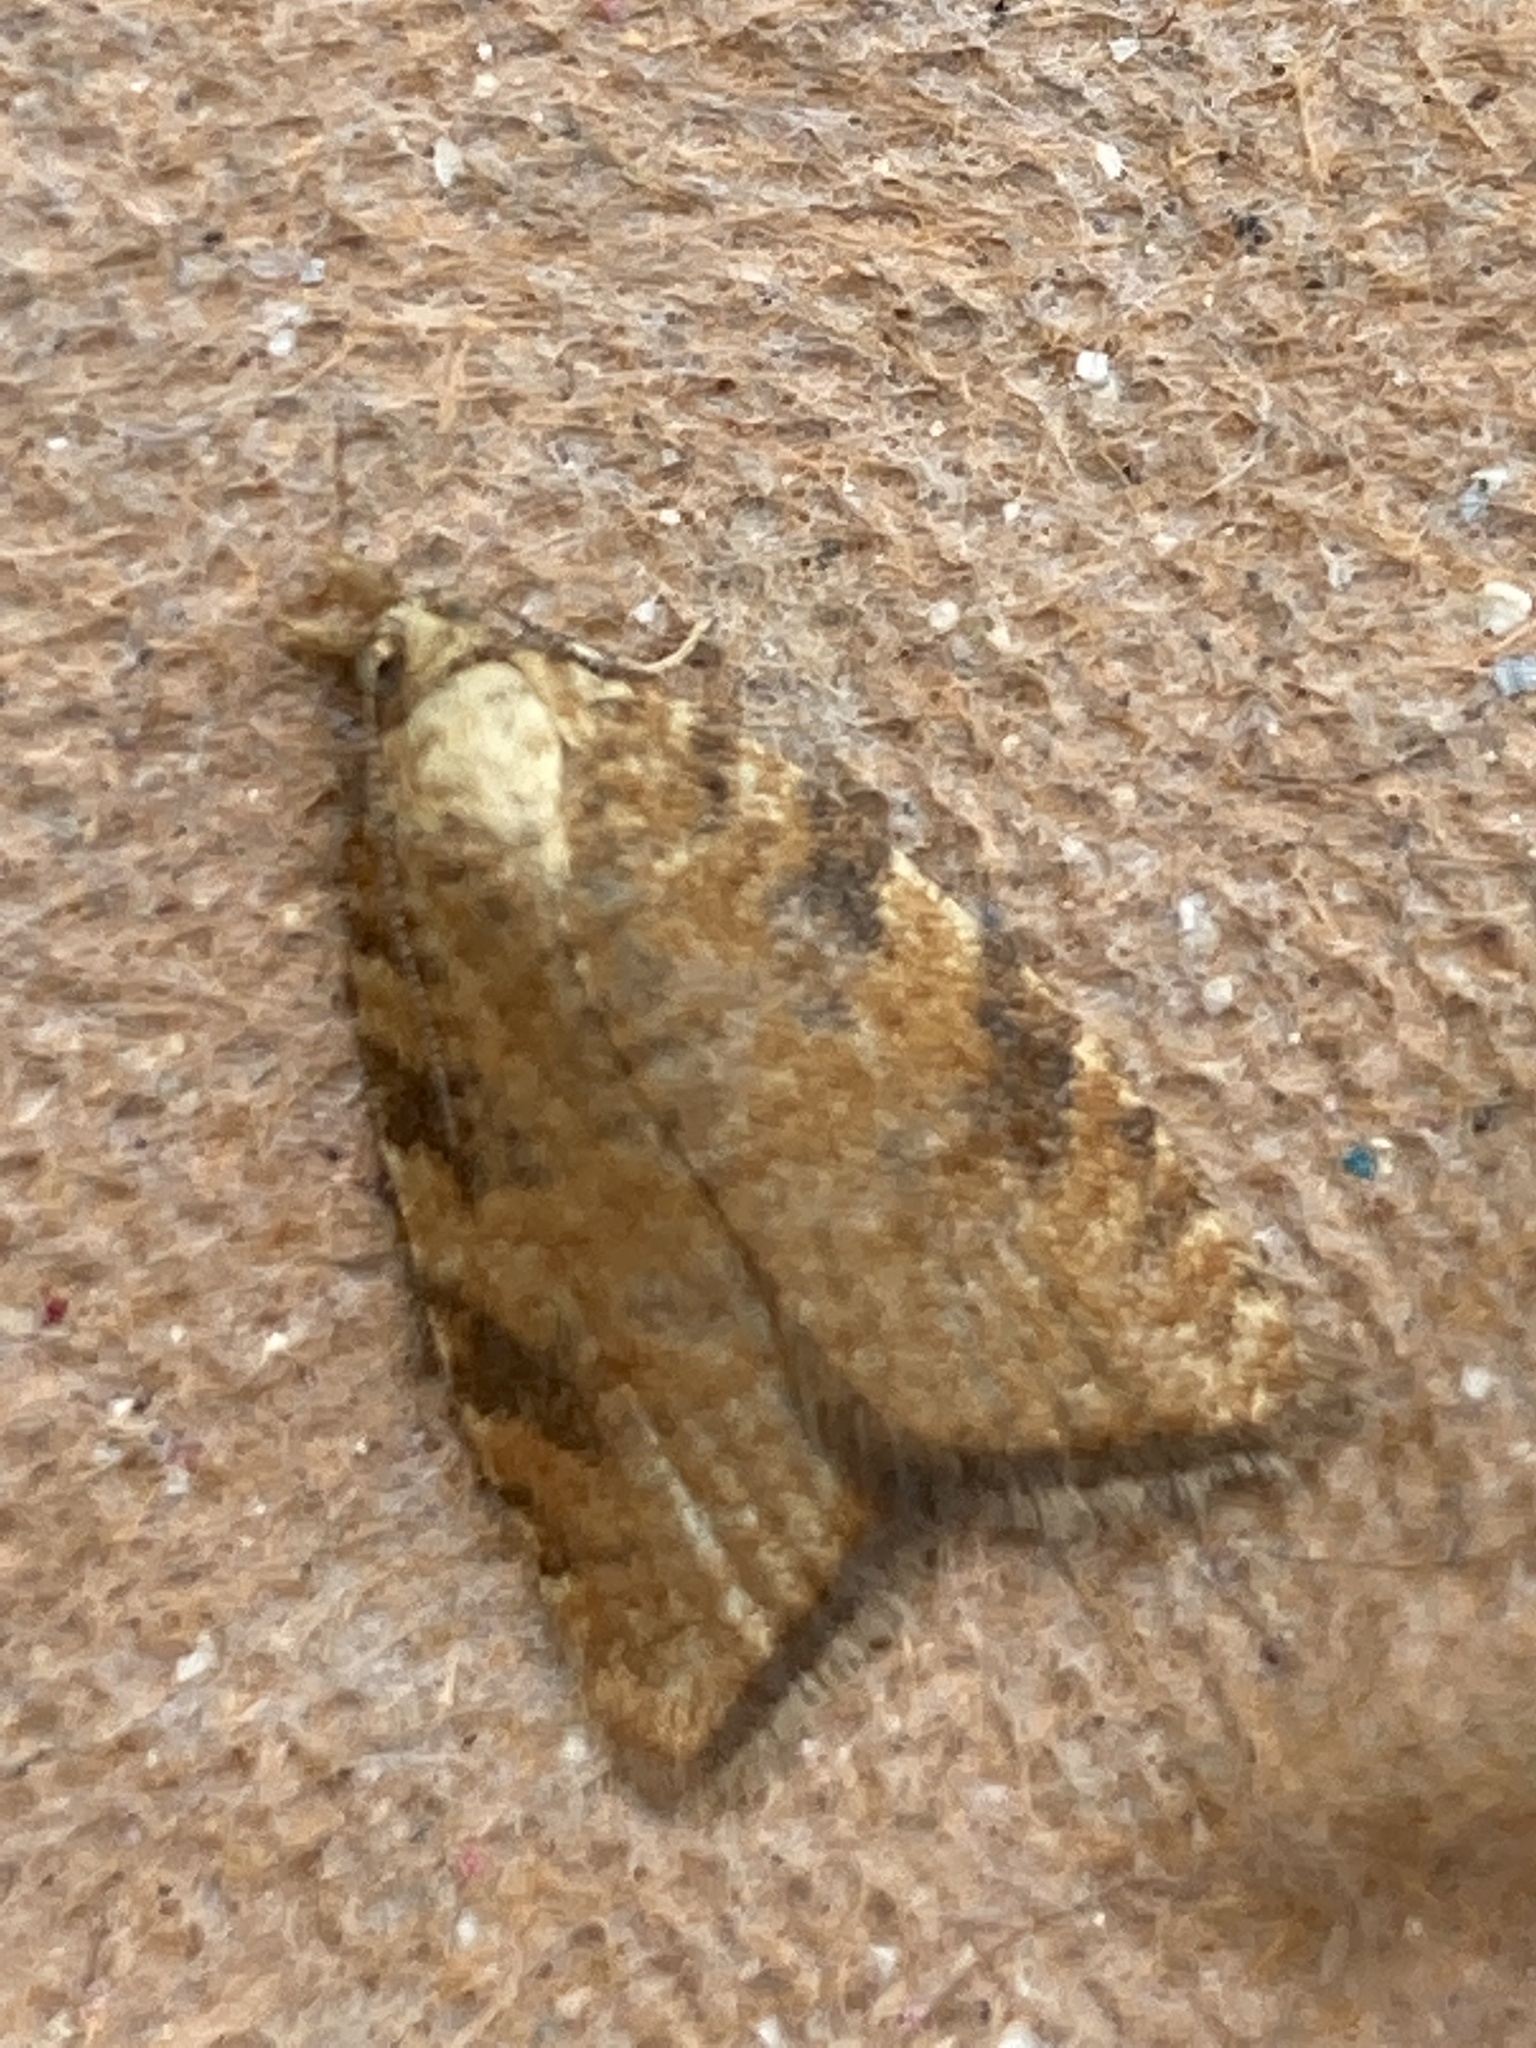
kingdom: Animalia
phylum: Arthropoda
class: Insecta
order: Lepidoptera
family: Tortricidae
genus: Aleimma
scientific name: Aleimma loeflingiana
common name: Yellow oak button
